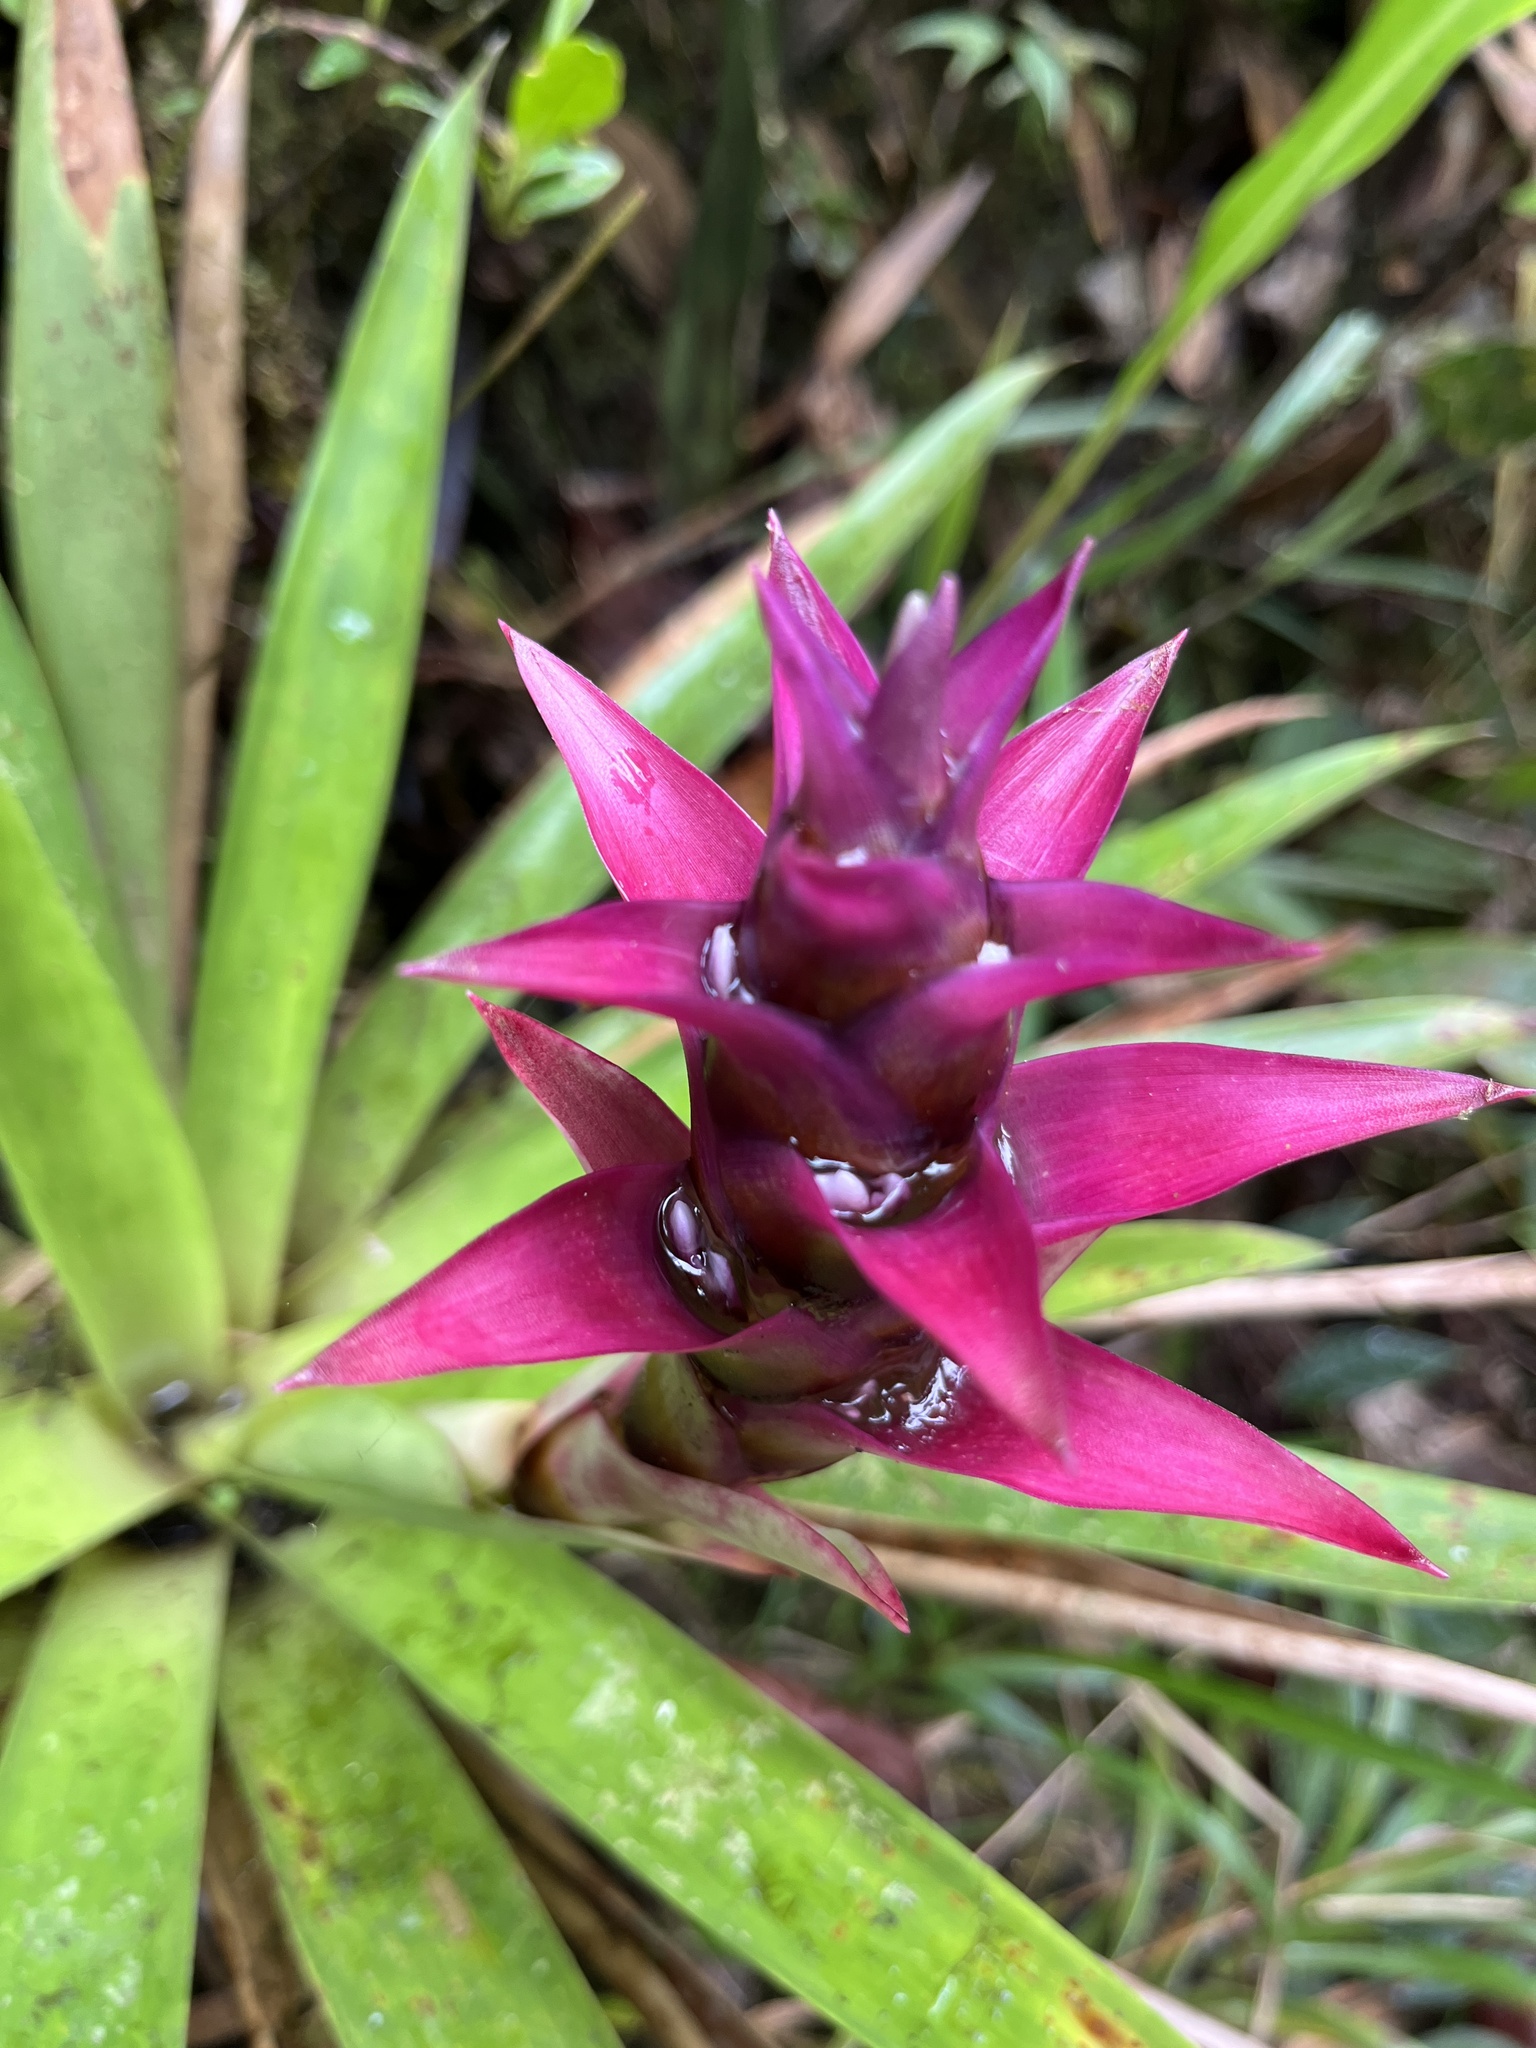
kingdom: Plantae
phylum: Tracheophyta
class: Liliopsida
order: Poales
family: Bromeliaceae
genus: Guzmania
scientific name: Guzmania verecunda
